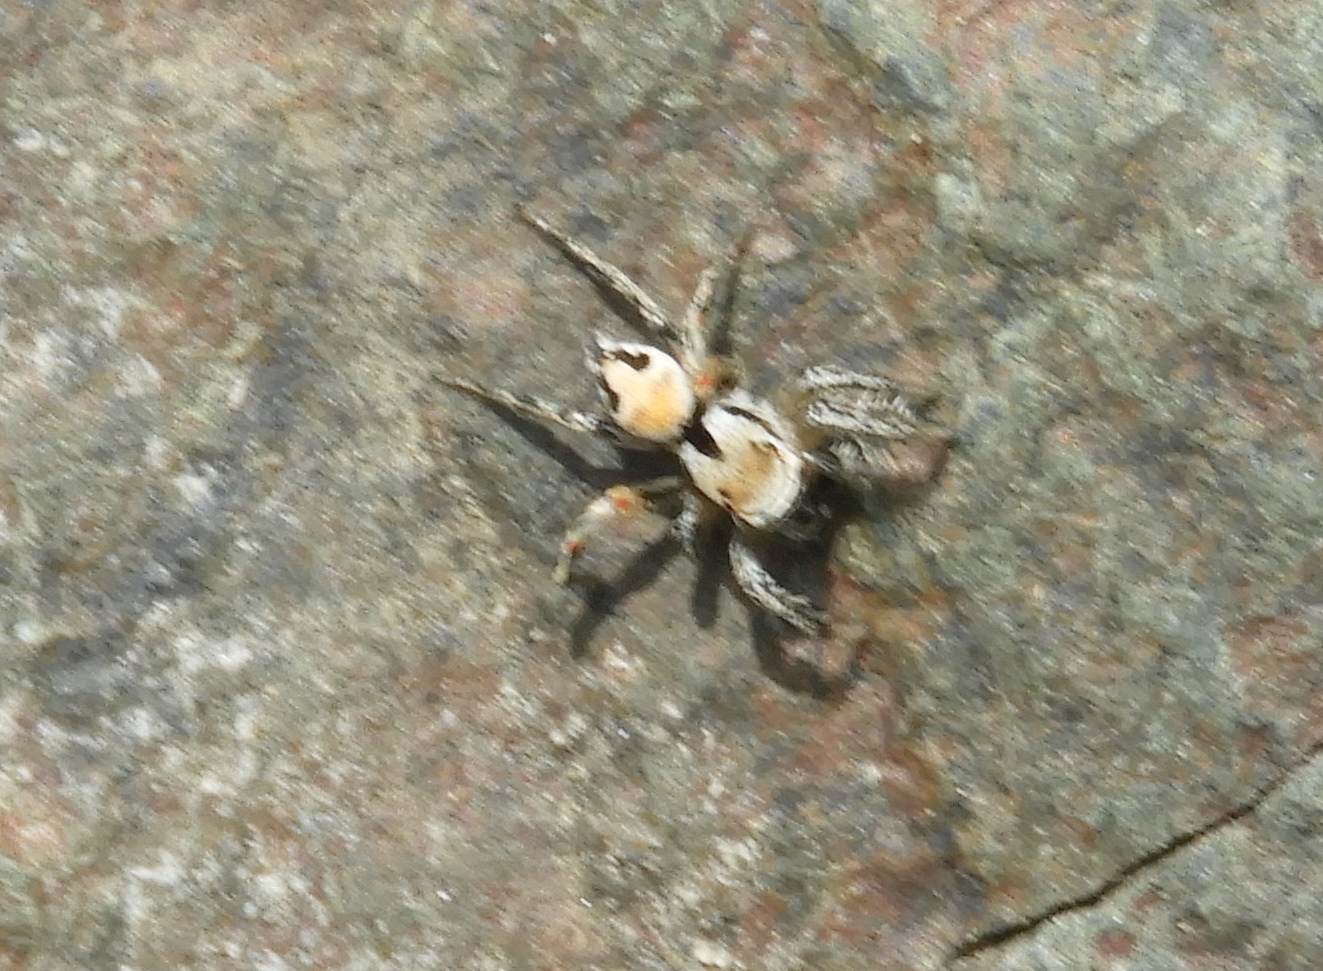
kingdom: Animalia
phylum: Arthropoda
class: Arachnida
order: Araneae
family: Salticidae
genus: Habronattus
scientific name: Habronattus aztecanus
